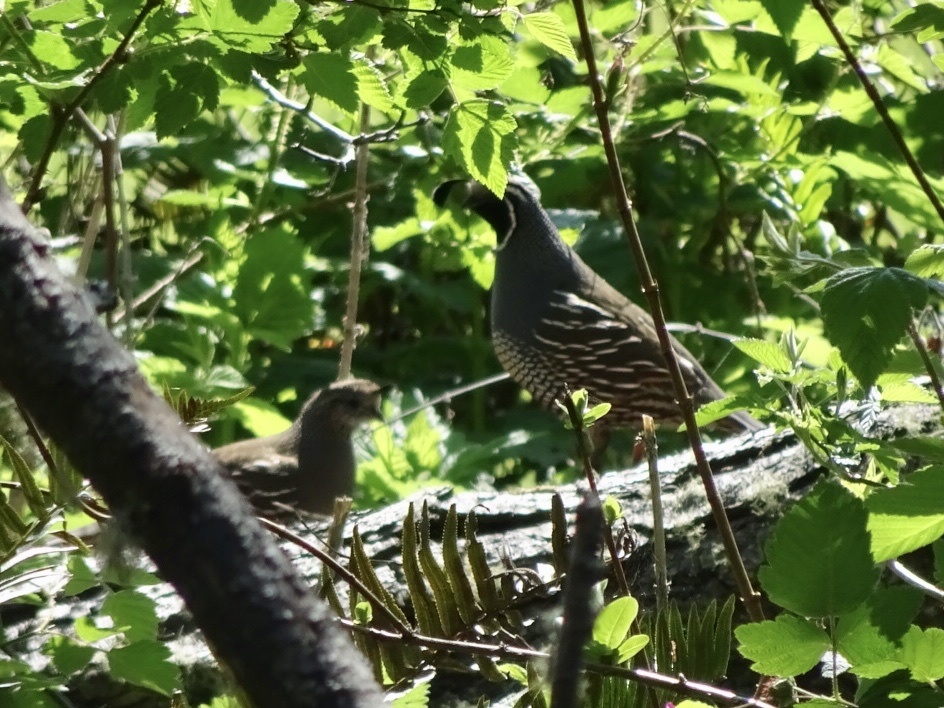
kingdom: Animalia
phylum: Chordata
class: Aves
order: Galliformes
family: Odontophoridae
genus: Callipepla
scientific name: Callipepla californica
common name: California quail
